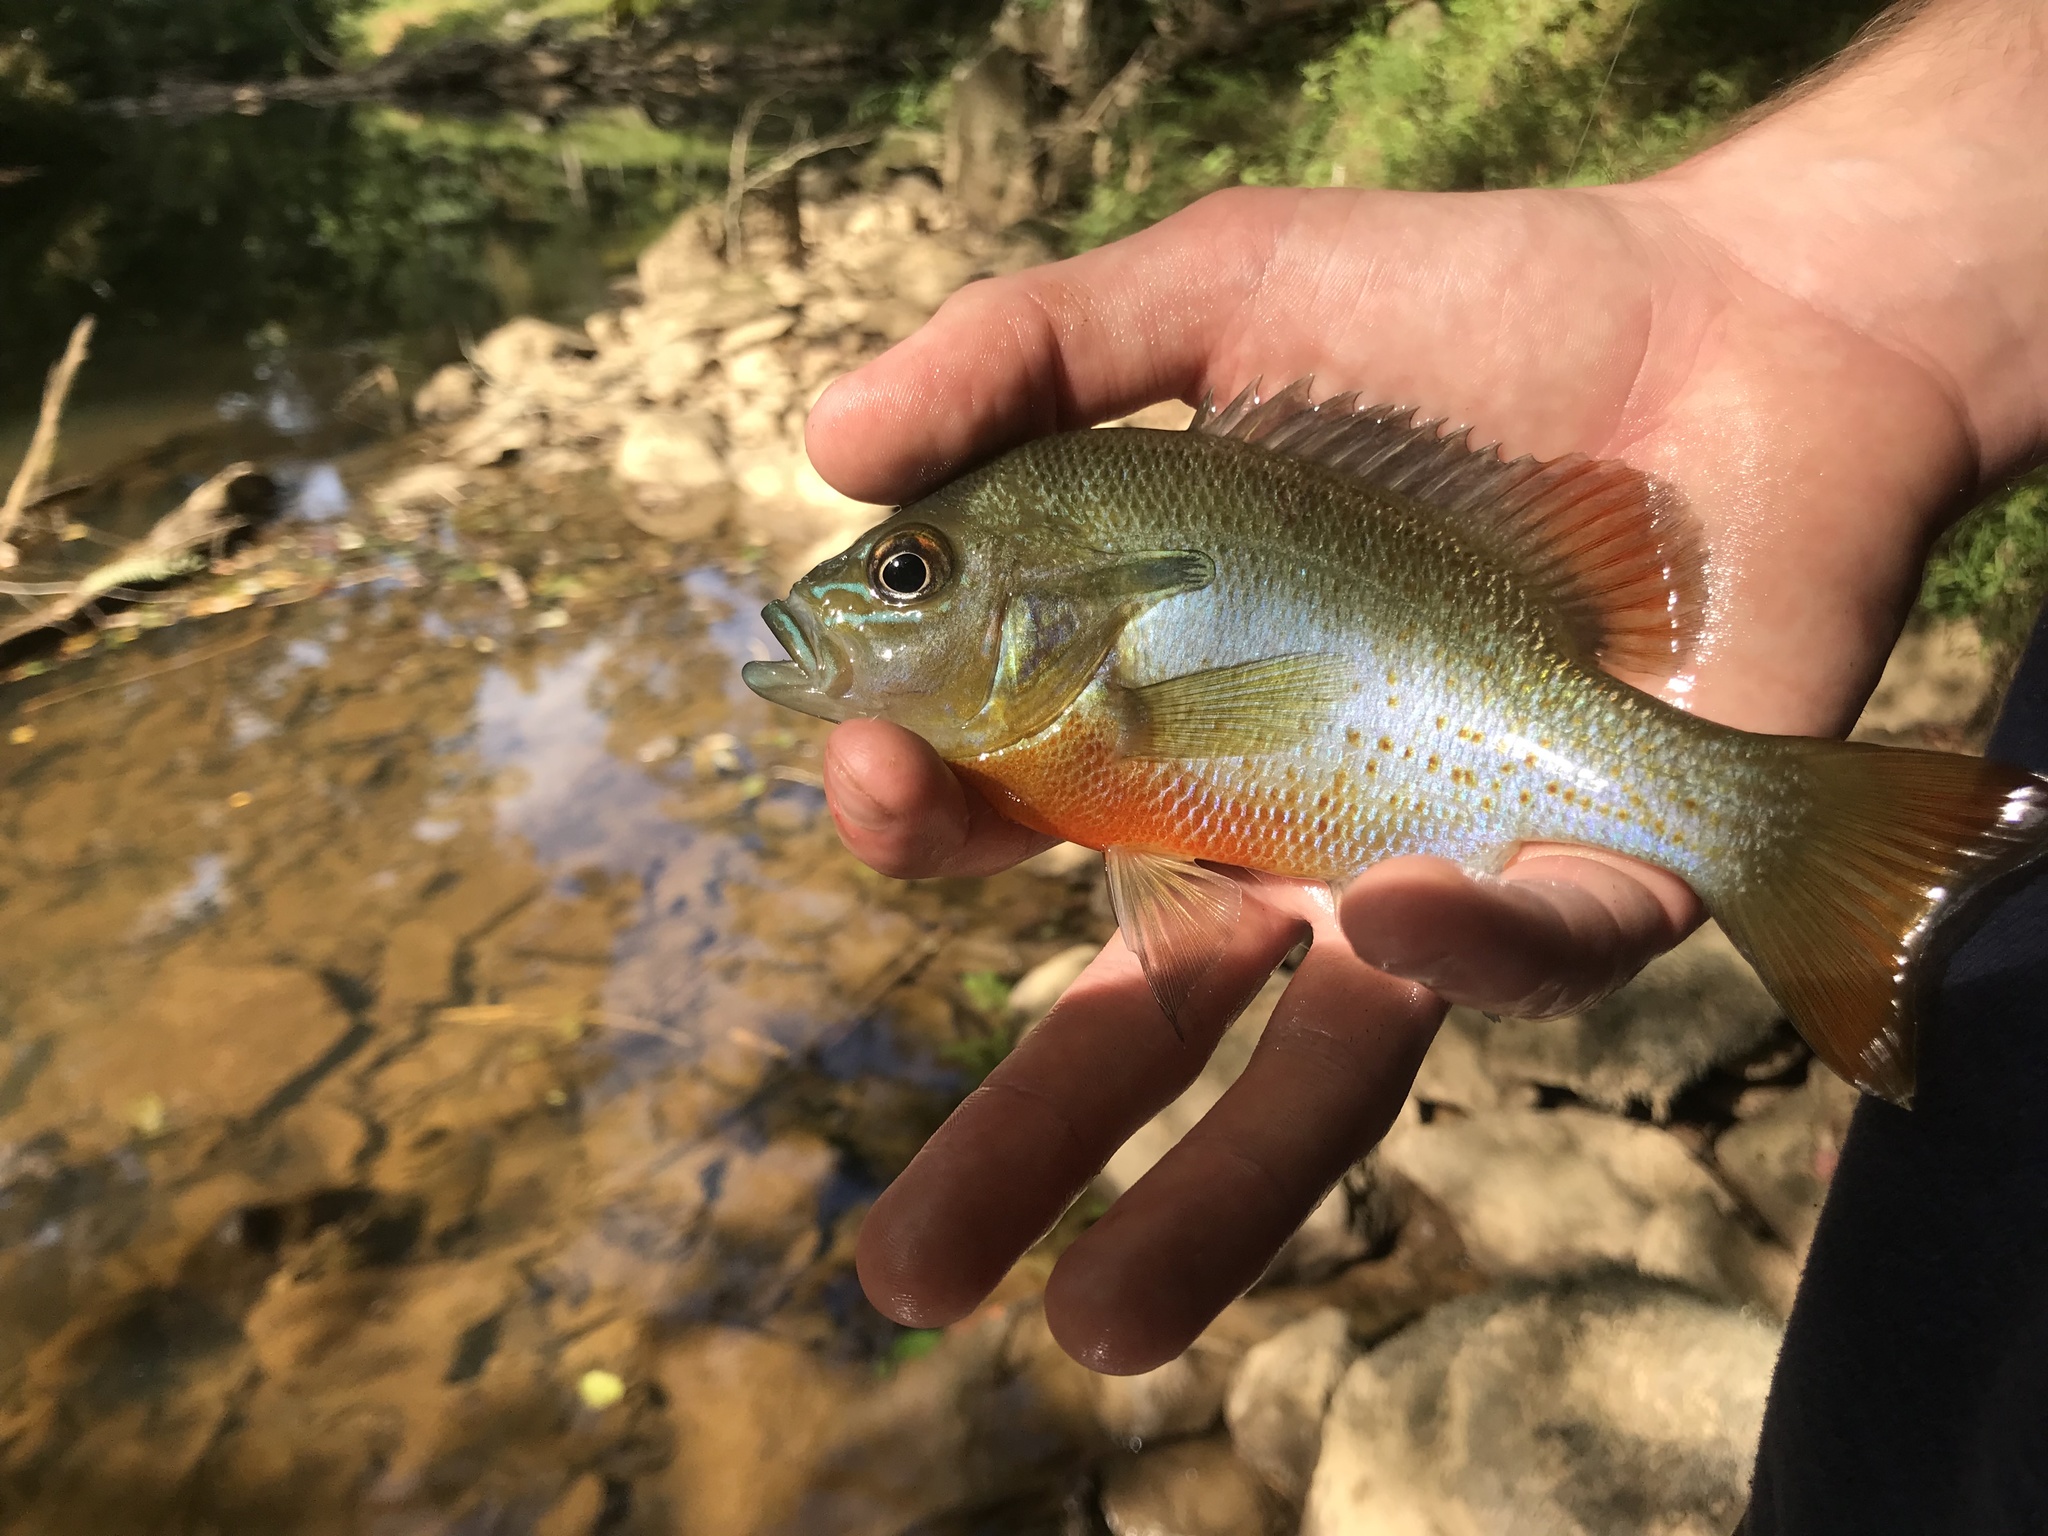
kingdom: Animalia
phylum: Chordata
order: Perciformes
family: Centrarchidae
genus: Lepomis
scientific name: Lepomis auritus
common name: Redbreast sunfish
